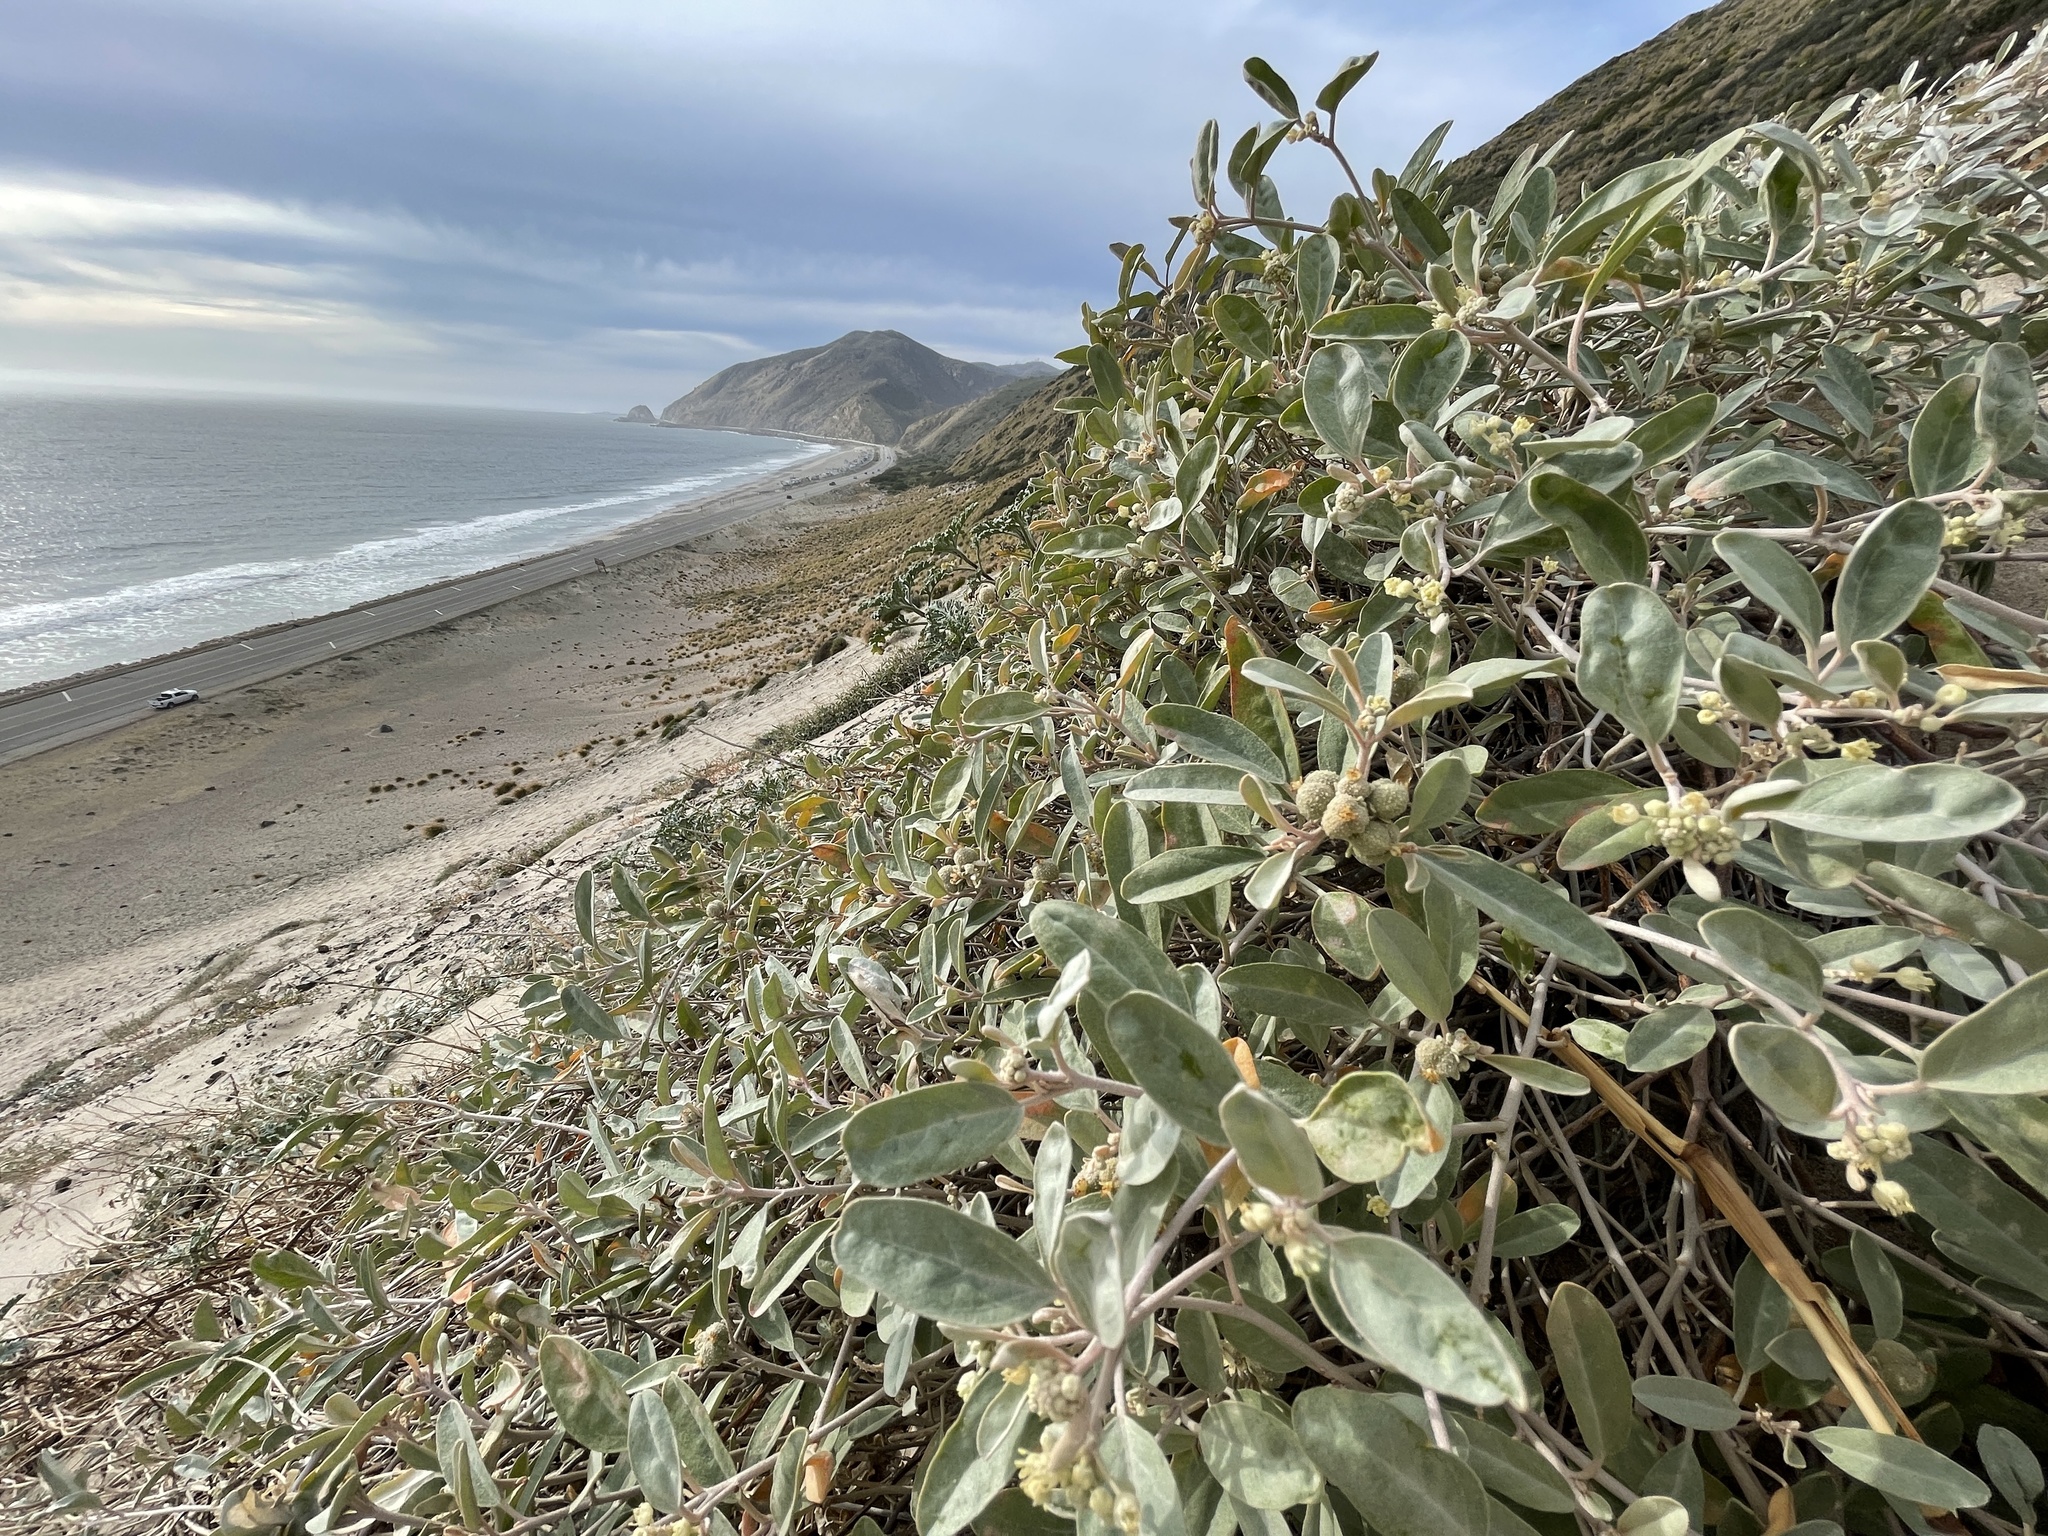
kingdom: Plantae
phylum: Tracheophyta
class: Magnoliopsida
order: Malpighiales
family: Euphorbiaceae
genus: Croton
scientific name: Croton californicus
